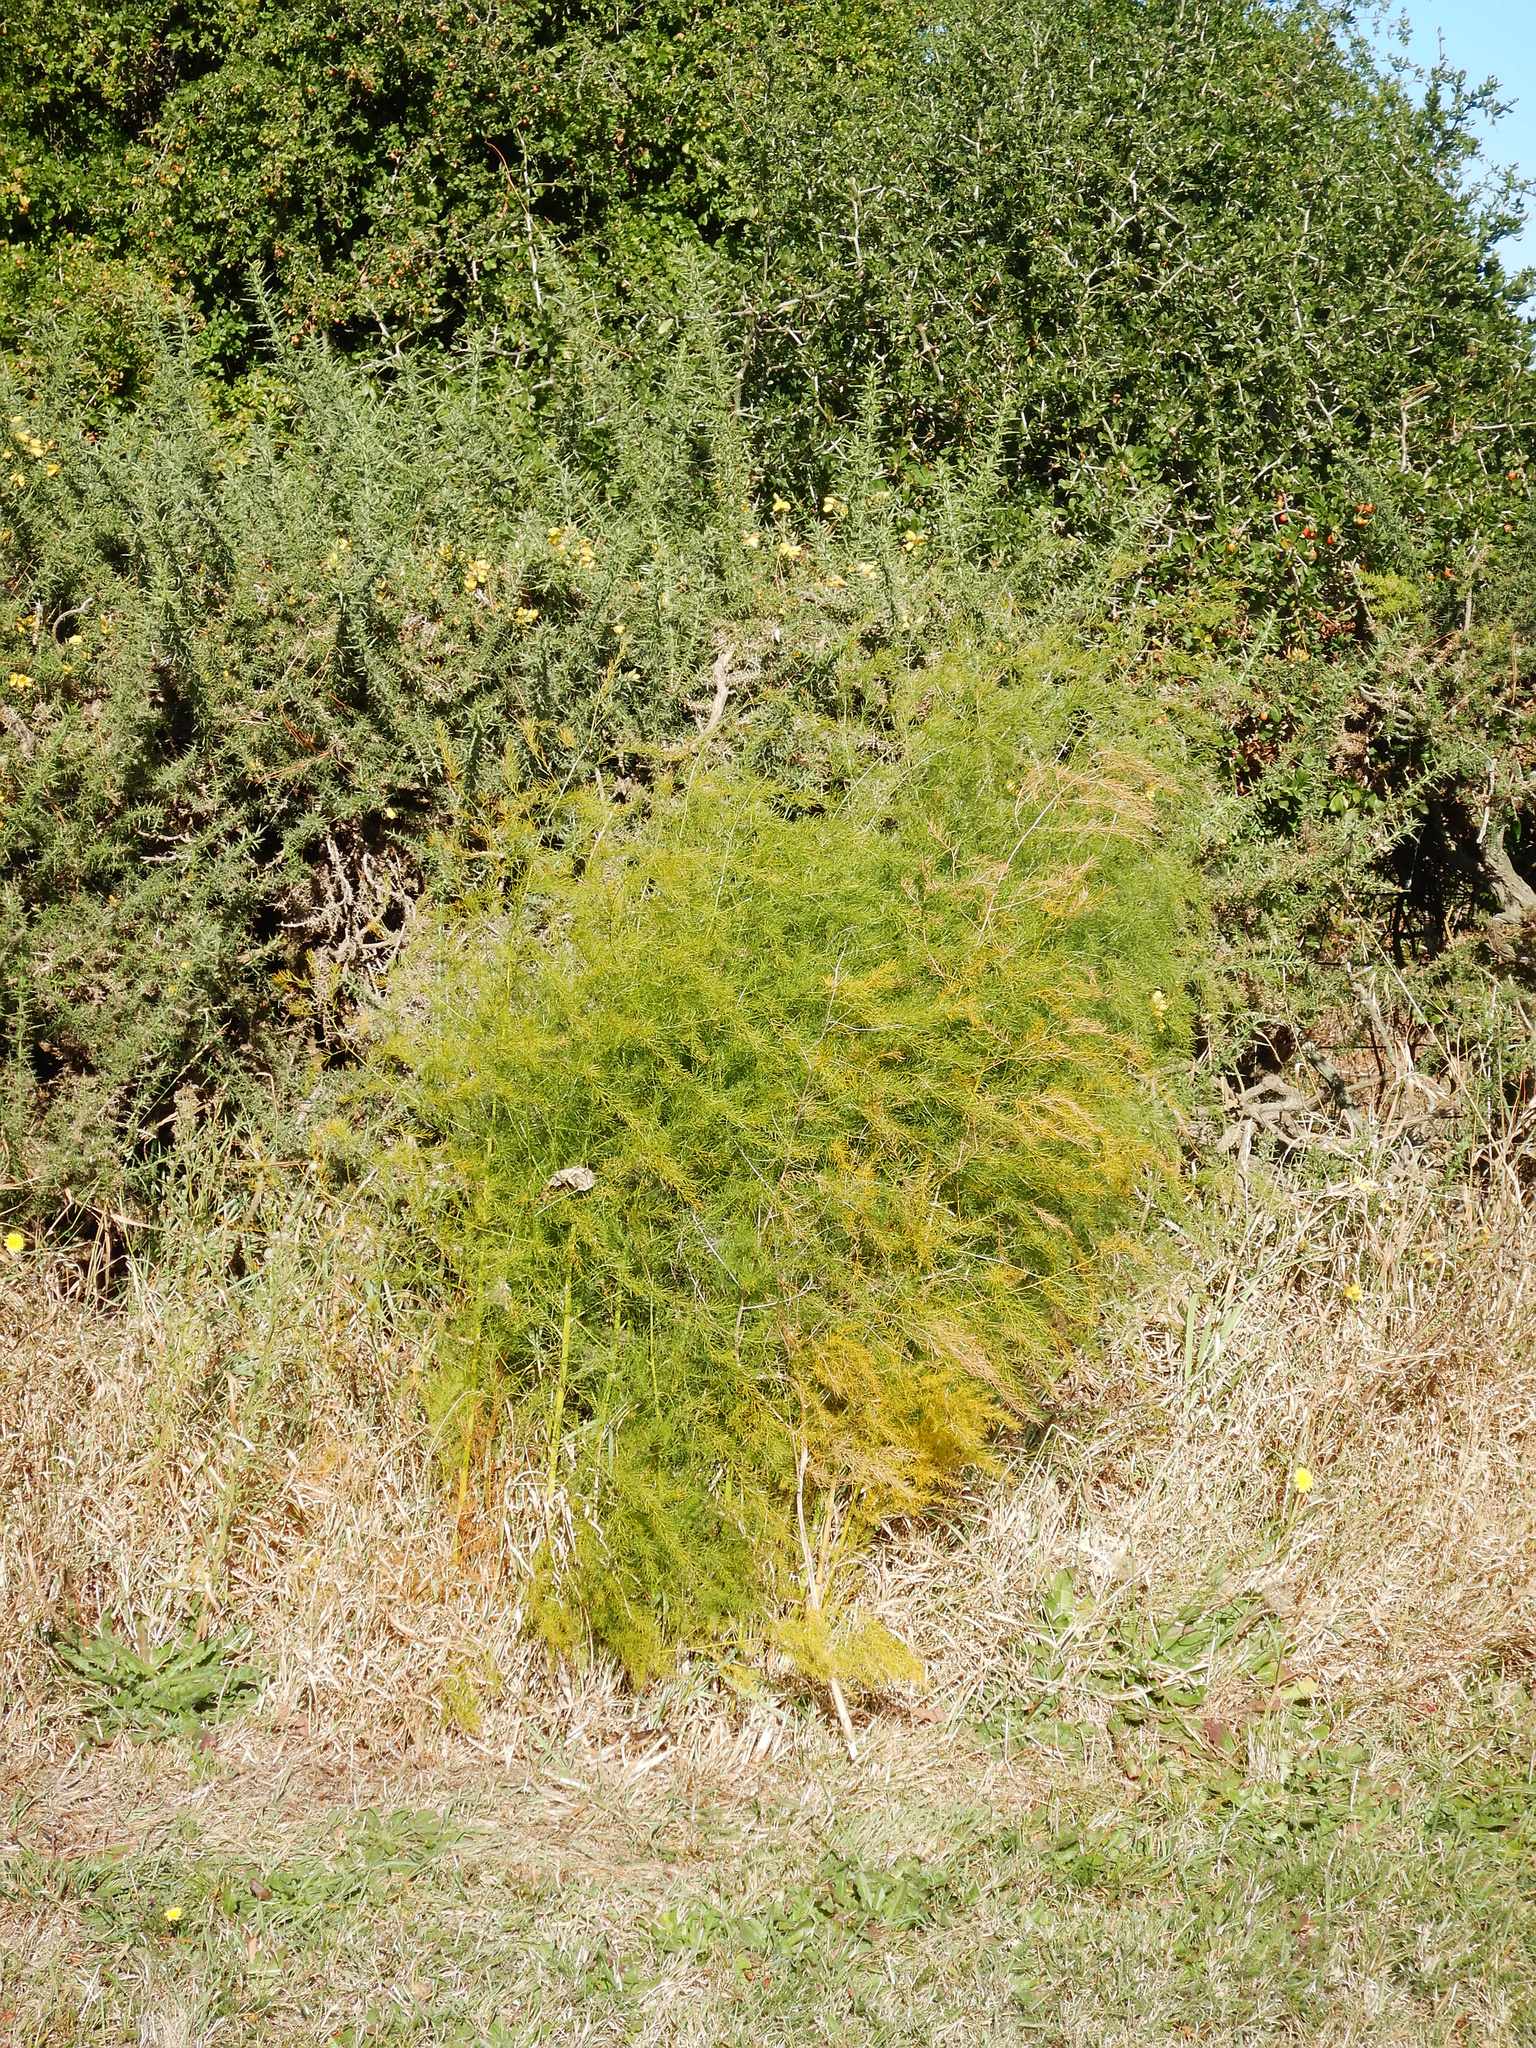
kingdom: Plantae
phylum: Tracheophyta
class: Liliopsida
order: Asparagales
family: Asparagaceae
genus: Asparagus
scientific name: Asparagus officinalis
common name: Garden asparagus
